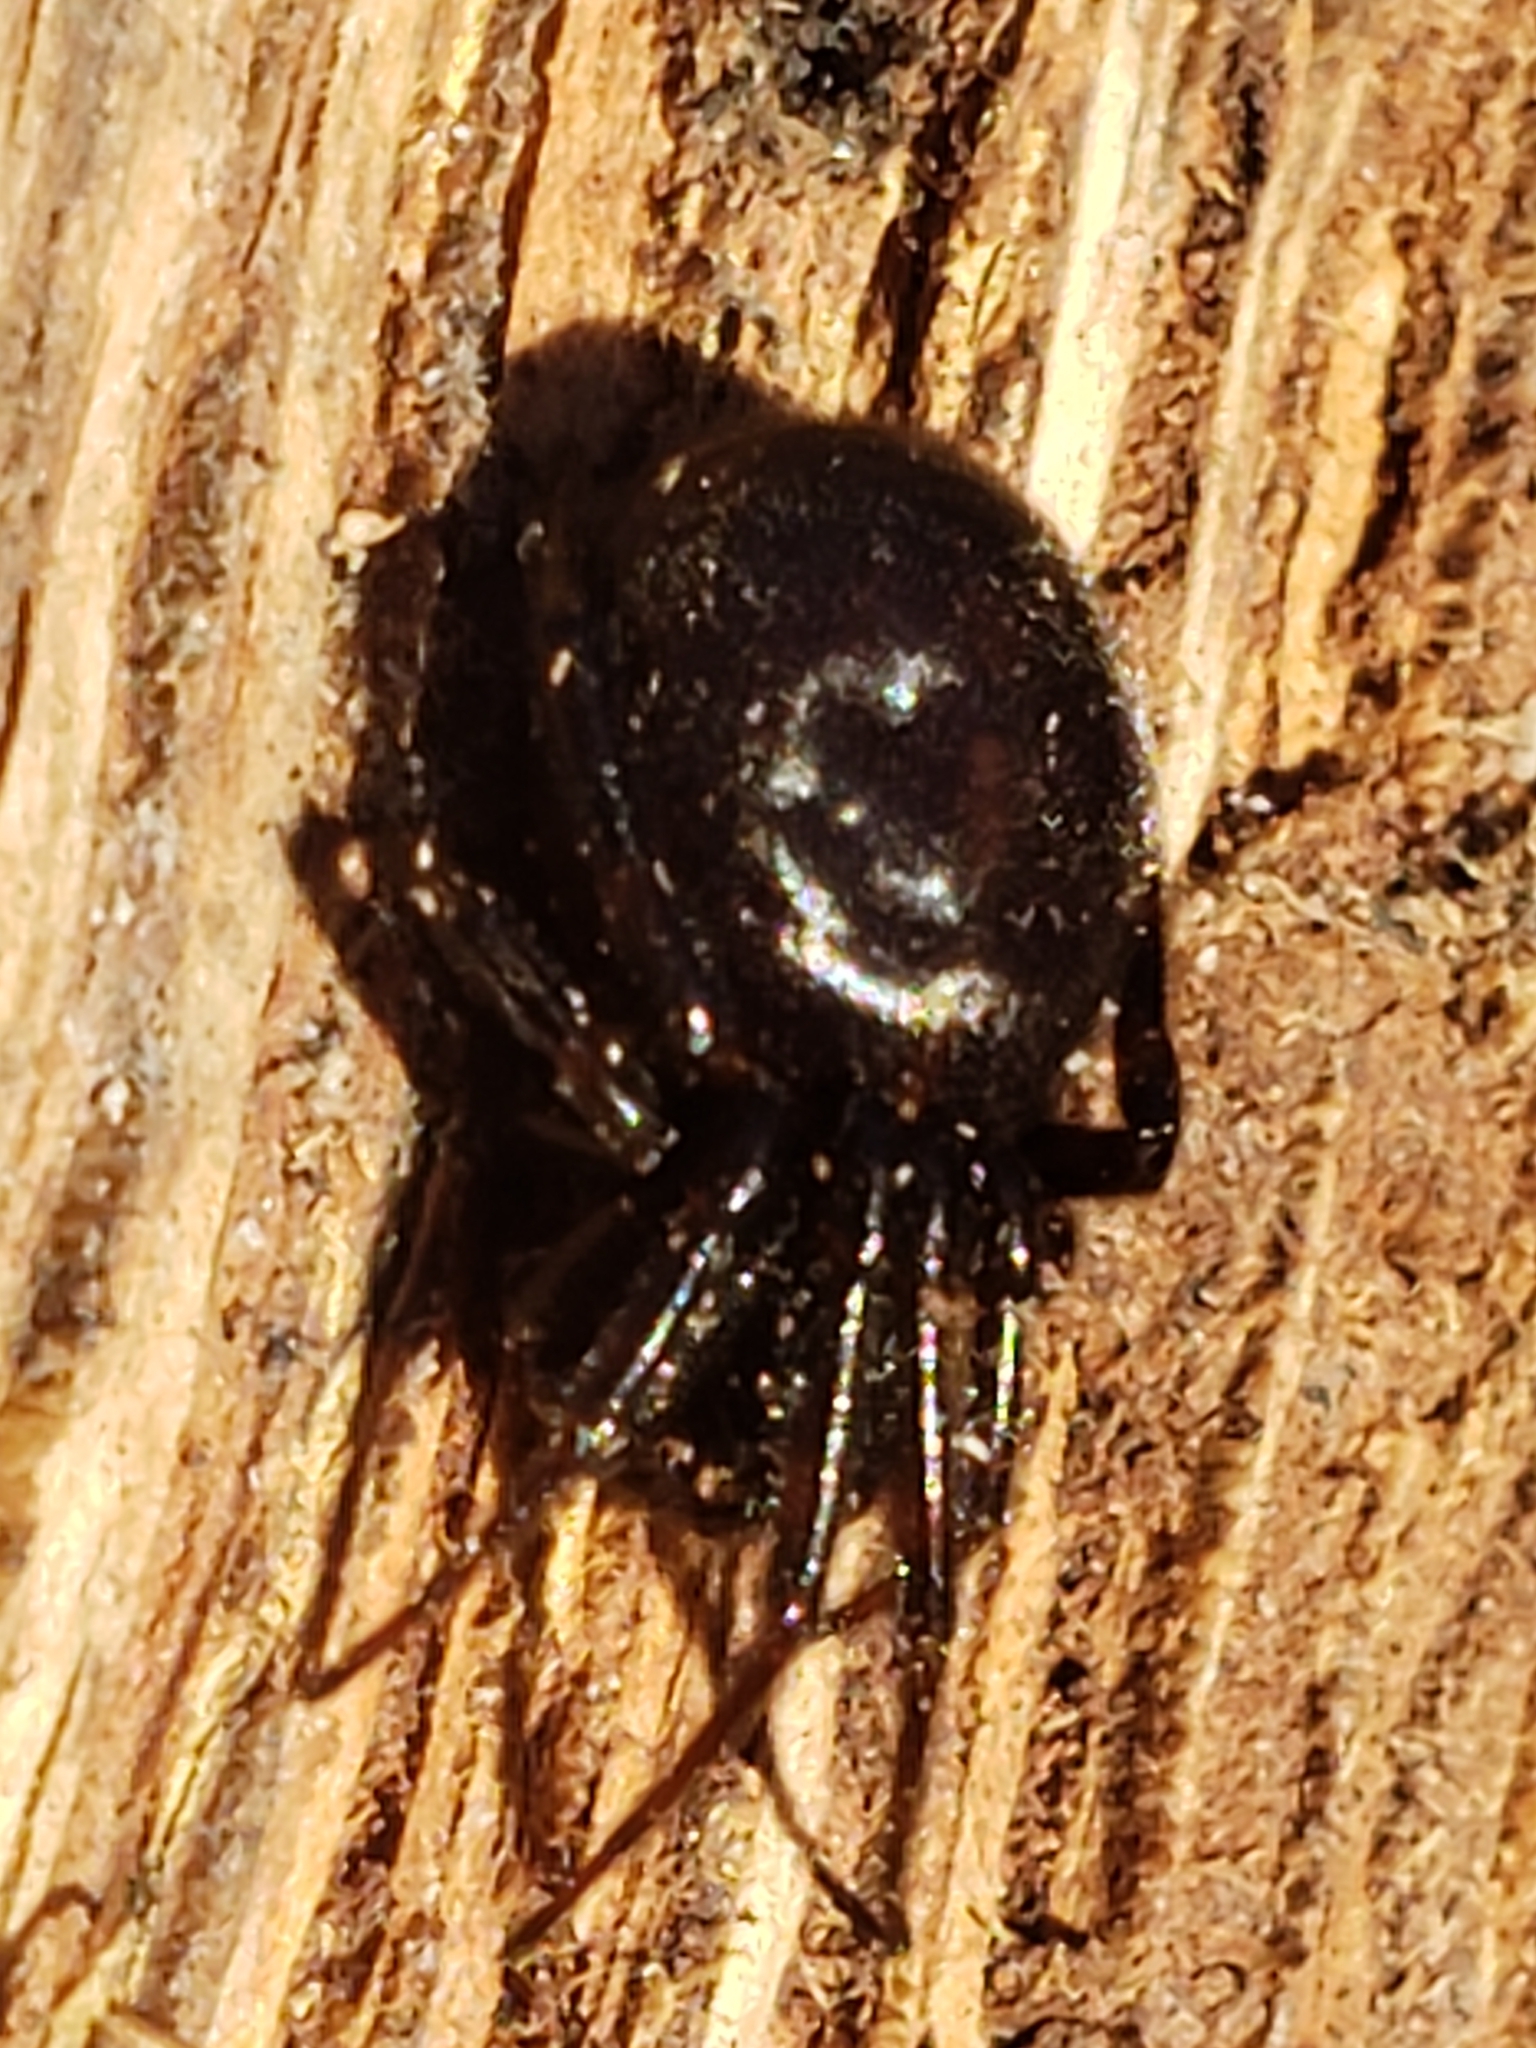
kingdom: Animalia
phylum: Arthropoda
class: Arachnida
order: Araneae
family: Theridiidae
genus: Steatoda
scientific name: Steatoda borealis
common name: Boreal combfoot
